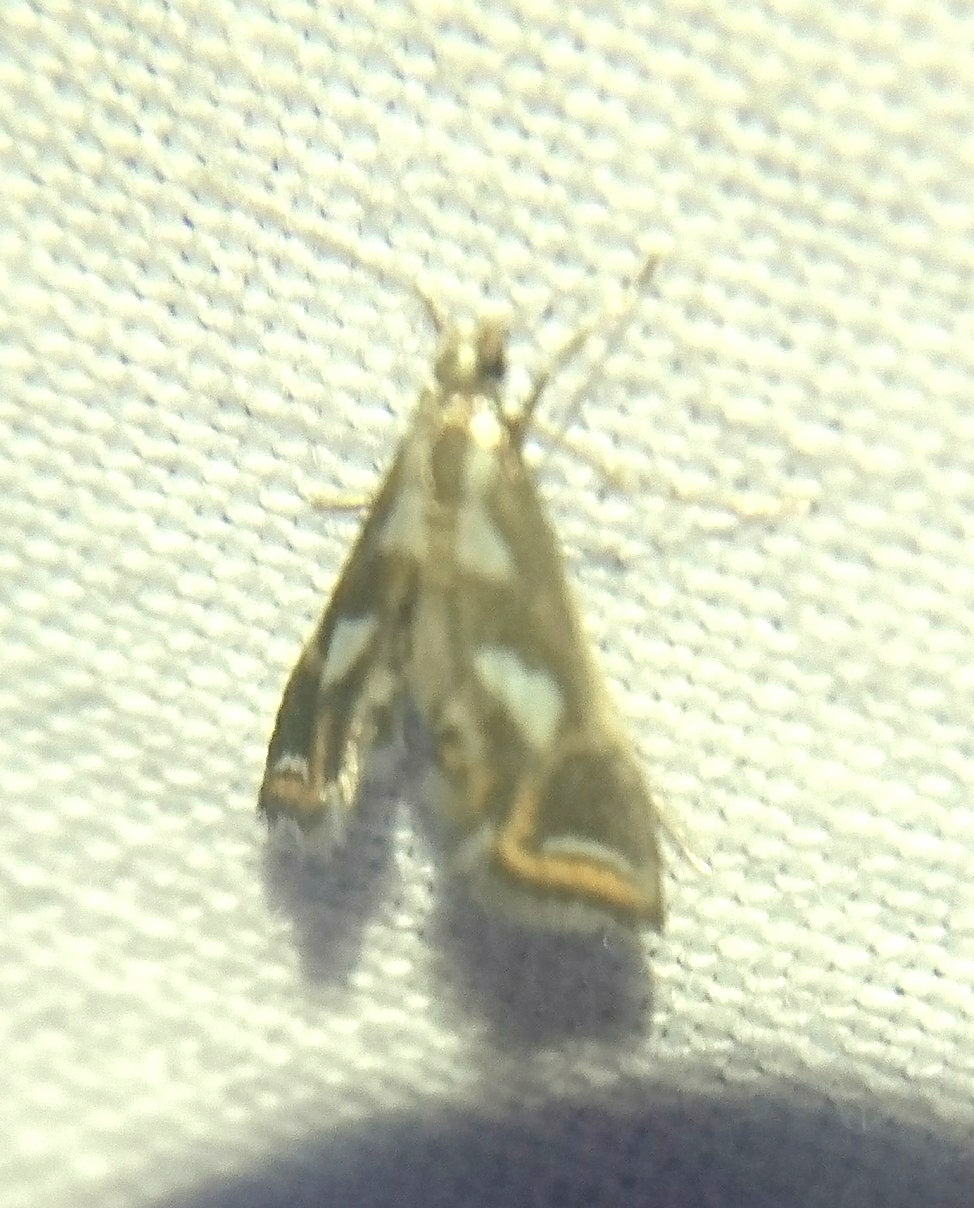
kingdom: Animalia
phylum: Arthropoda
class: Insecta
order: Lepidoptera
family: Crambidae
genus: Chrysendeton
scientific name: Chrysendeton imitabilis
